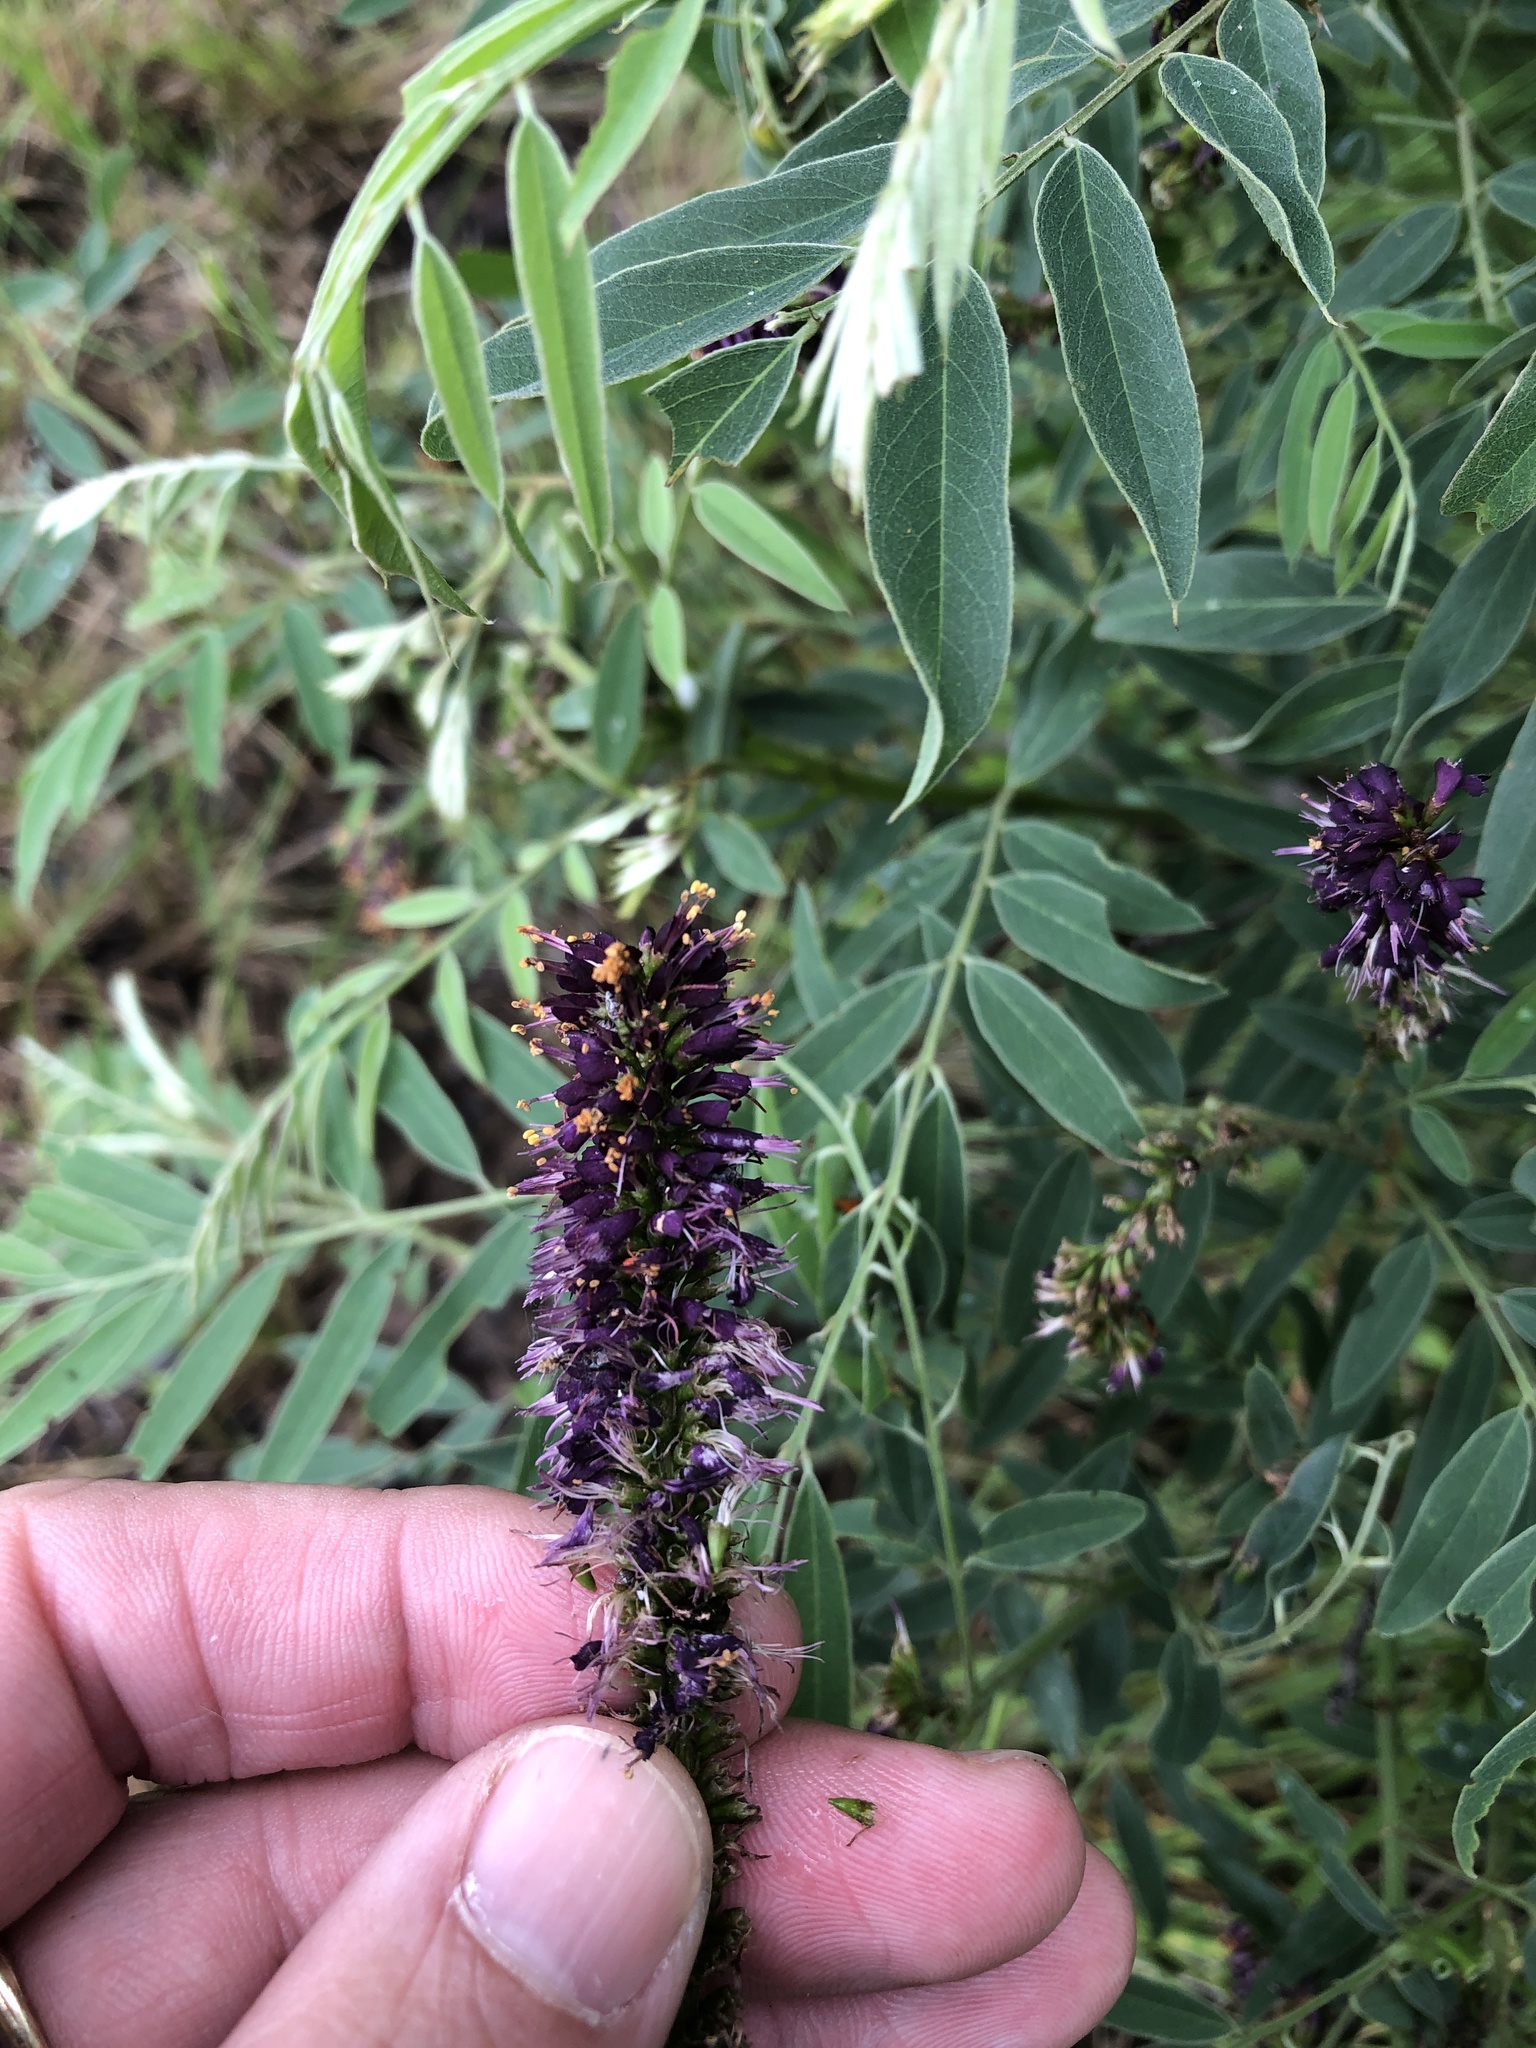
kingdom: Plantae
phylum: Tracheophyta
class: Magnoliopsida
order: Fabales
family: Fabaceae
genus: Amorpha
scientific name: Amorpha fruticosa
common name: False indigo
